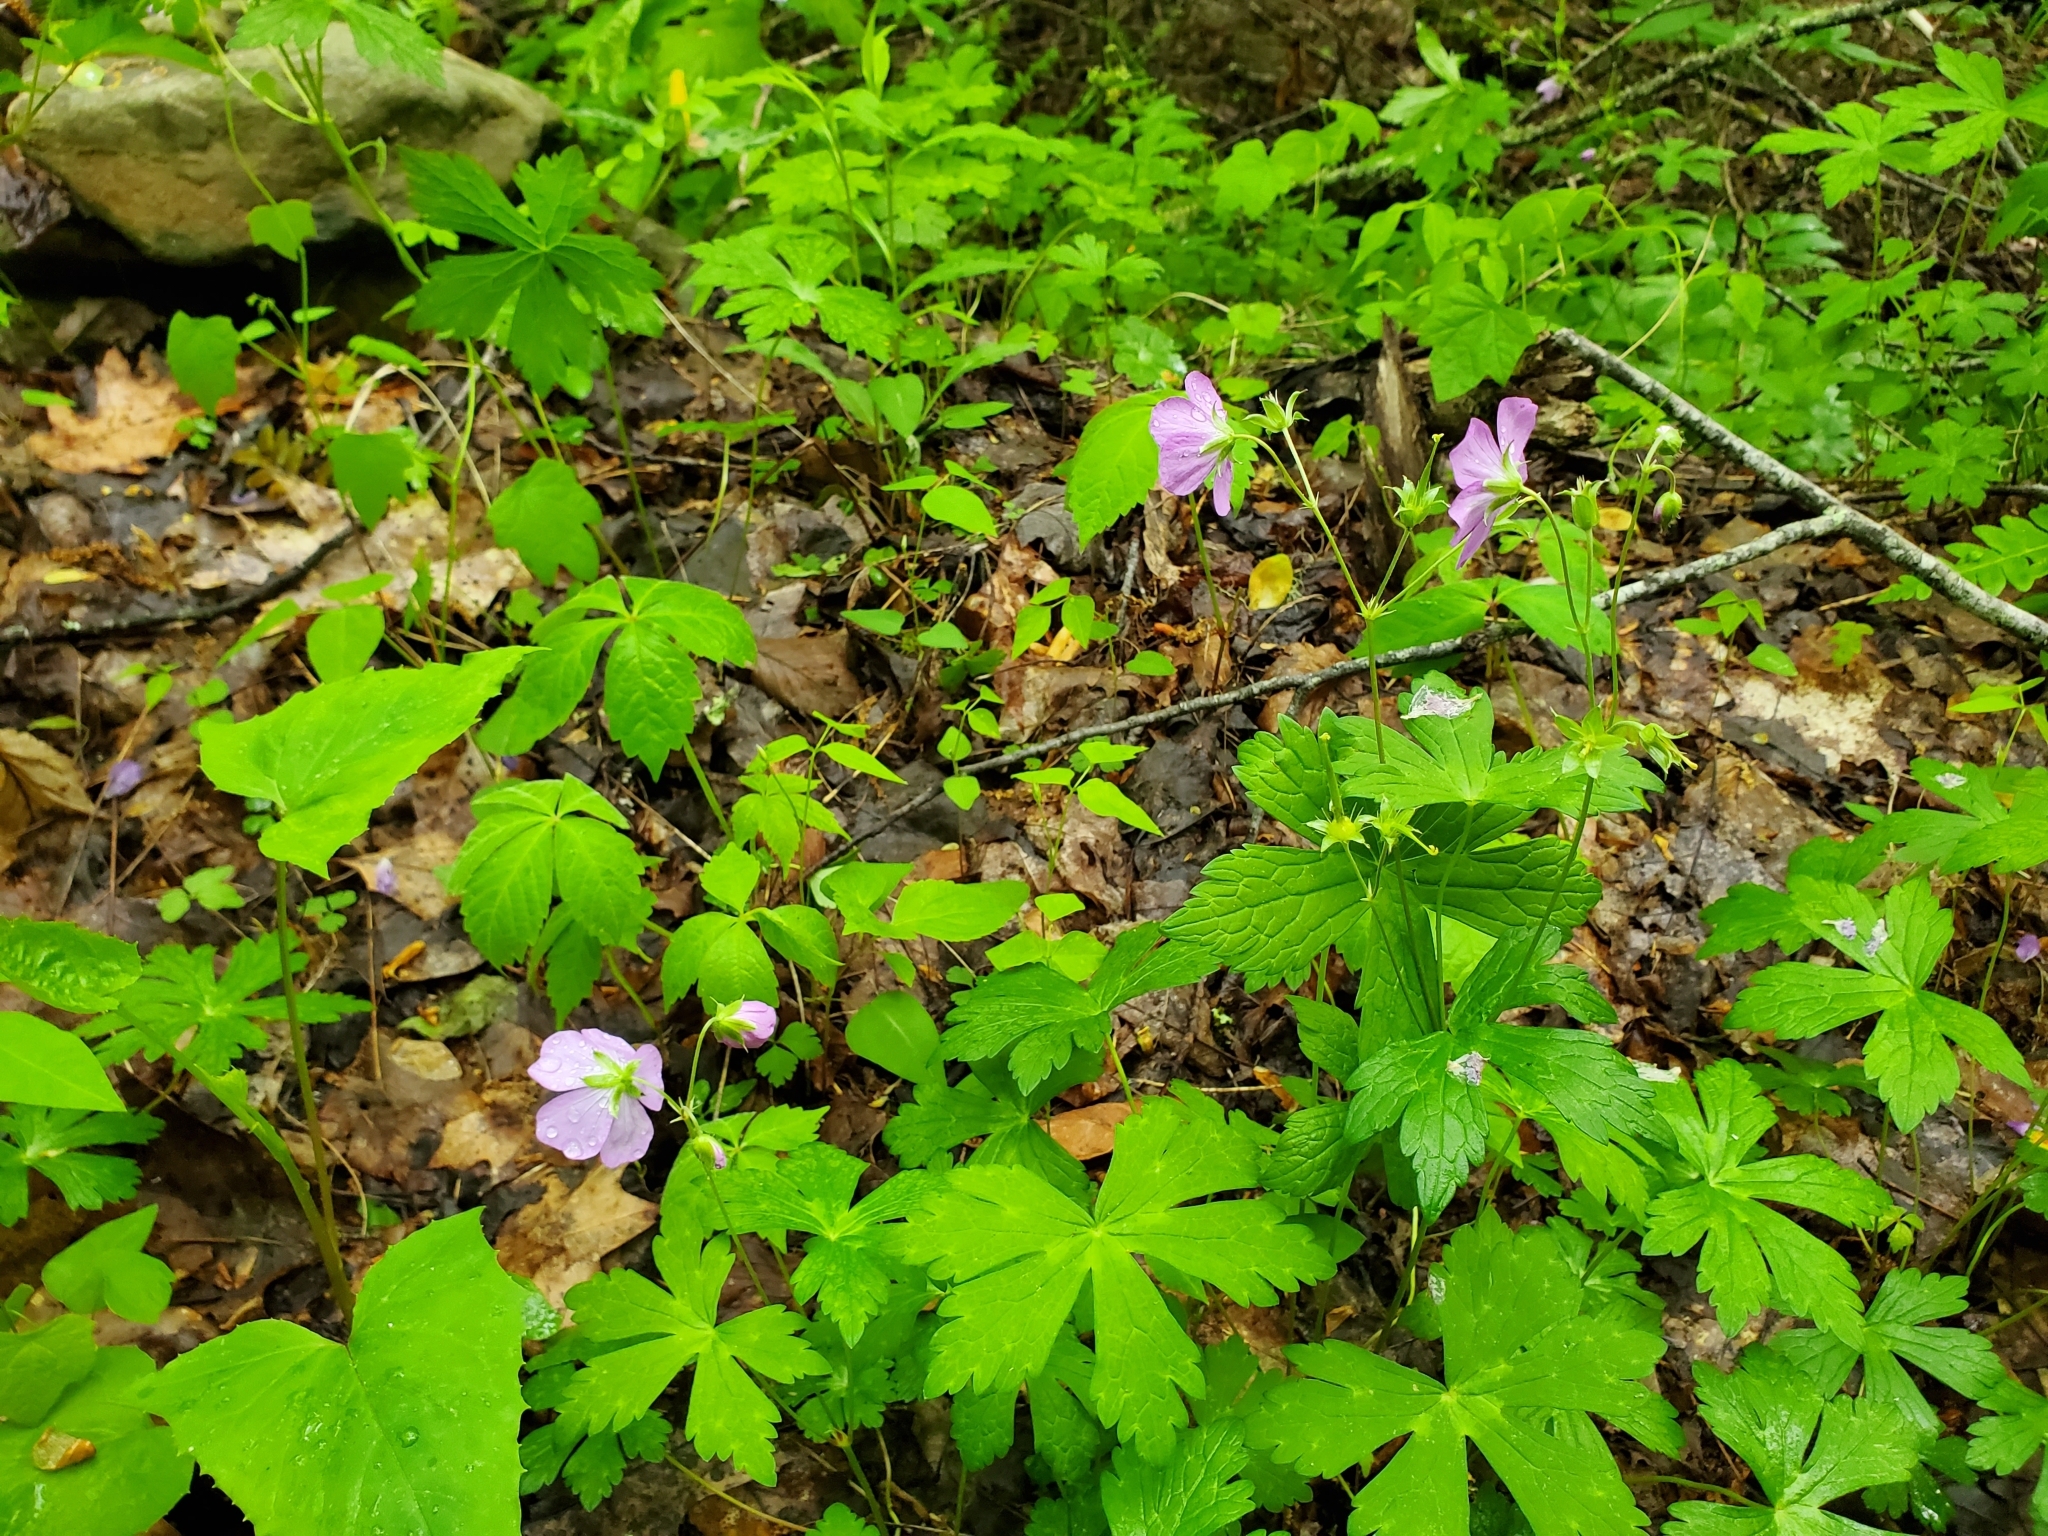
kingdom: Plantae
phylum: Tracheophyta
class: Magnoliopsida
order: Geraniales
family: Geraniaceae
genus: Geranium
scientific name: Geranium maculatum
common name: Spotted geranium
